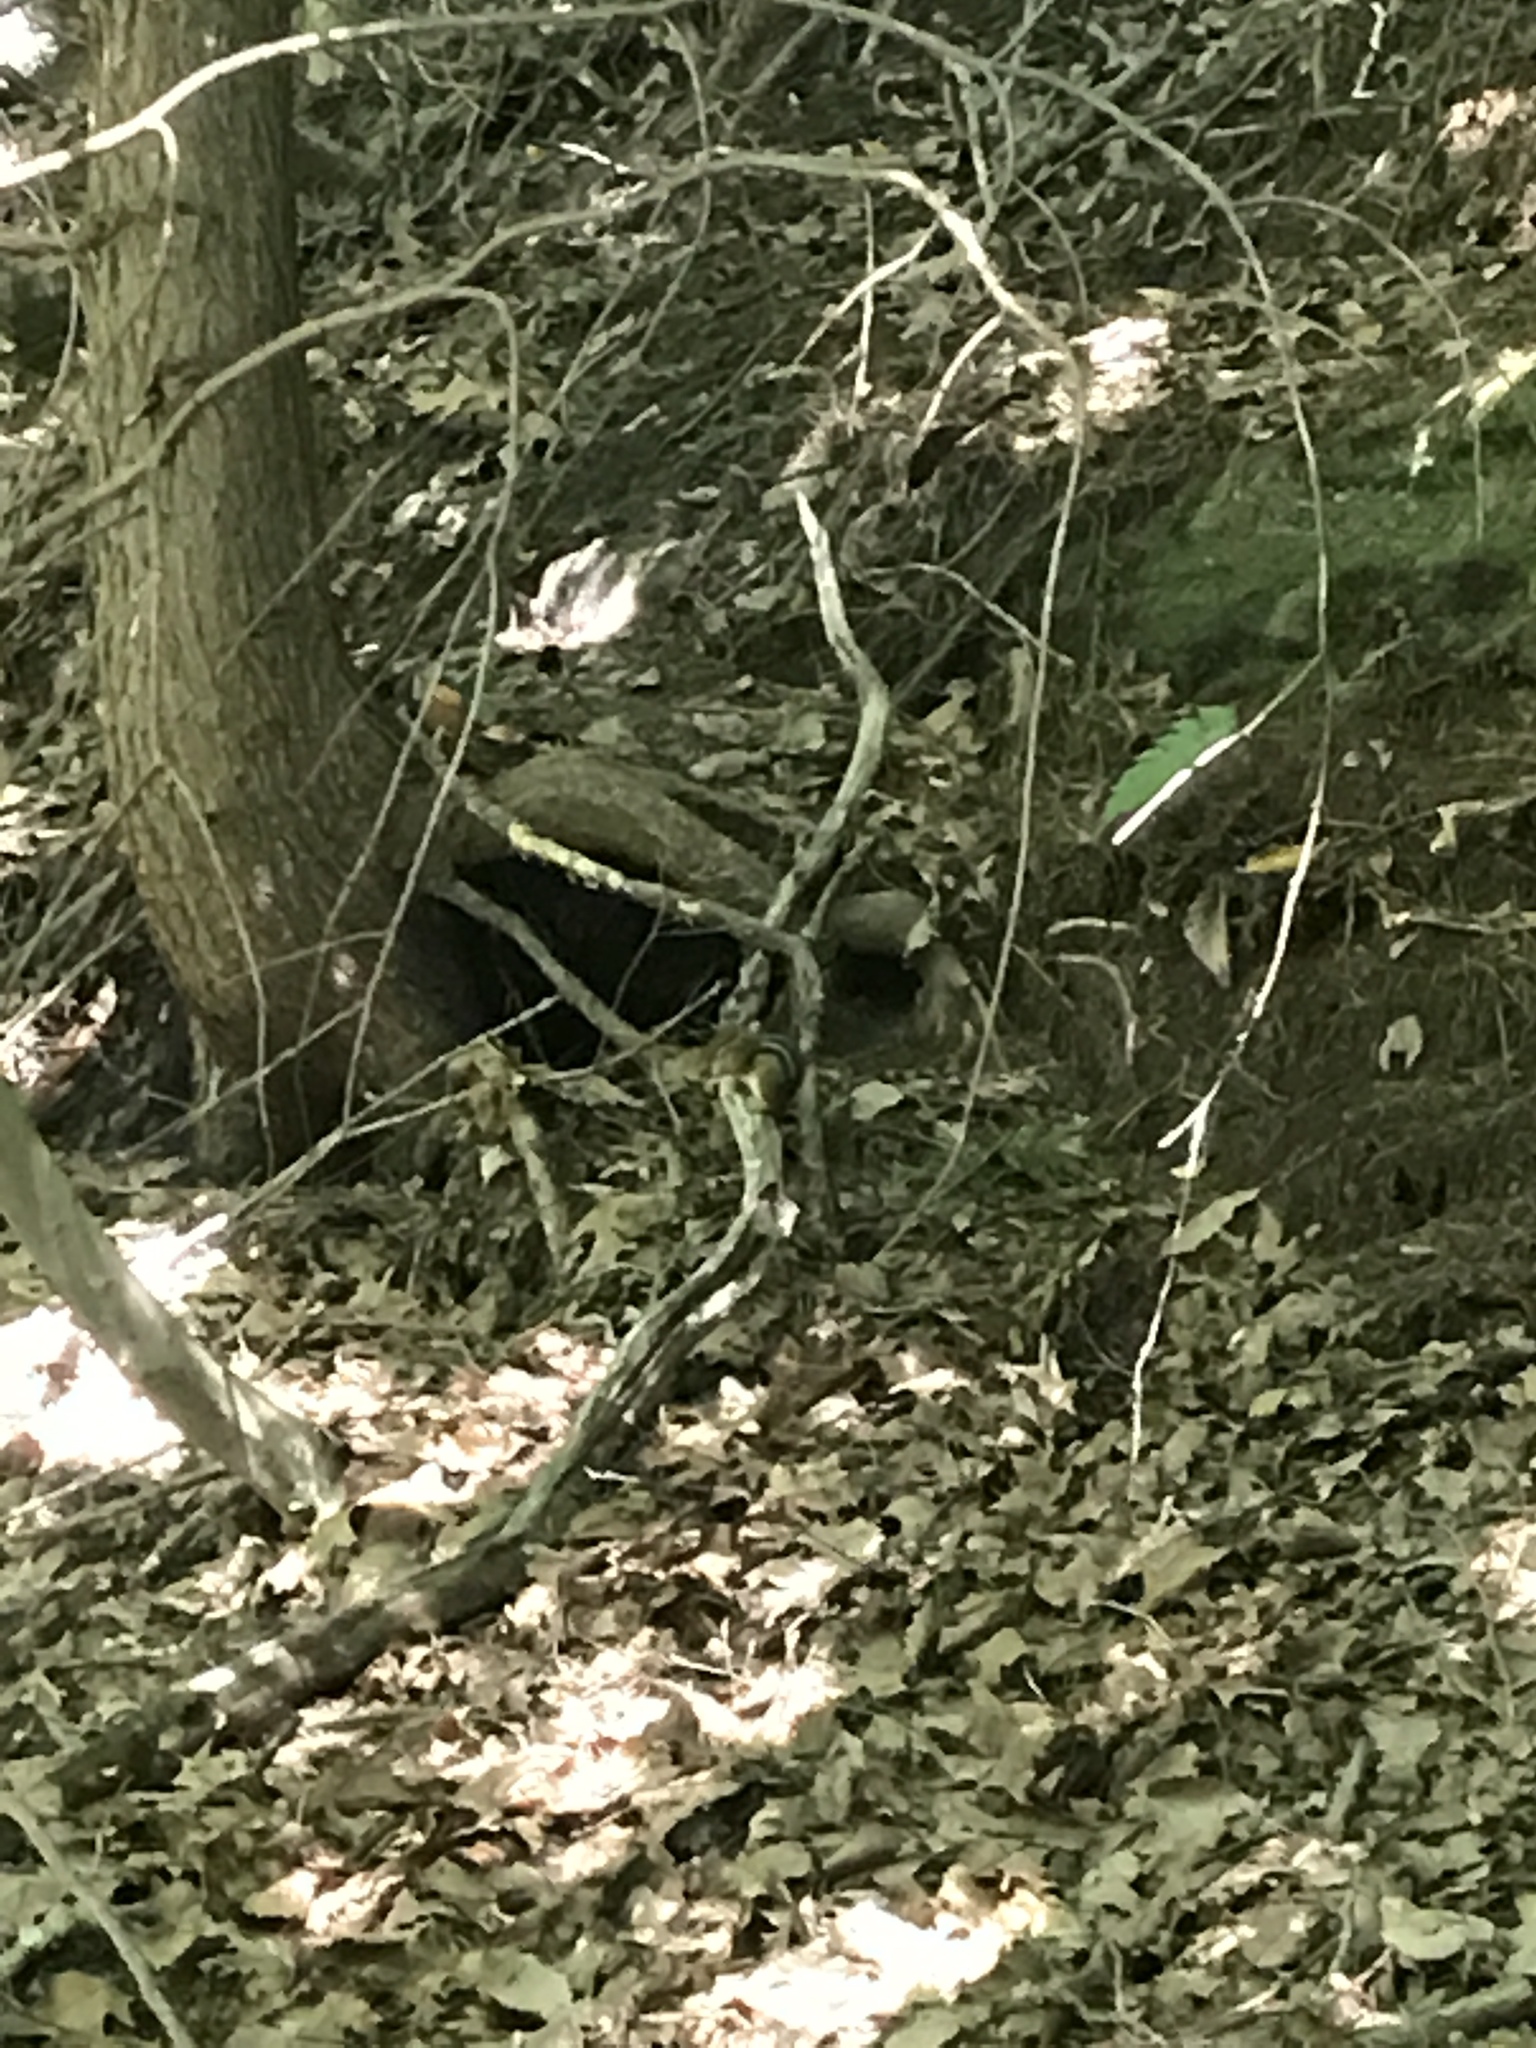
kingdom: Animalia
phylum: Chordata
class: Mammalia
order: Rodentia
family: Sciuridae
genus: Tamias
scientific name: Tamias striatus
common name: Eastern chipmunk
